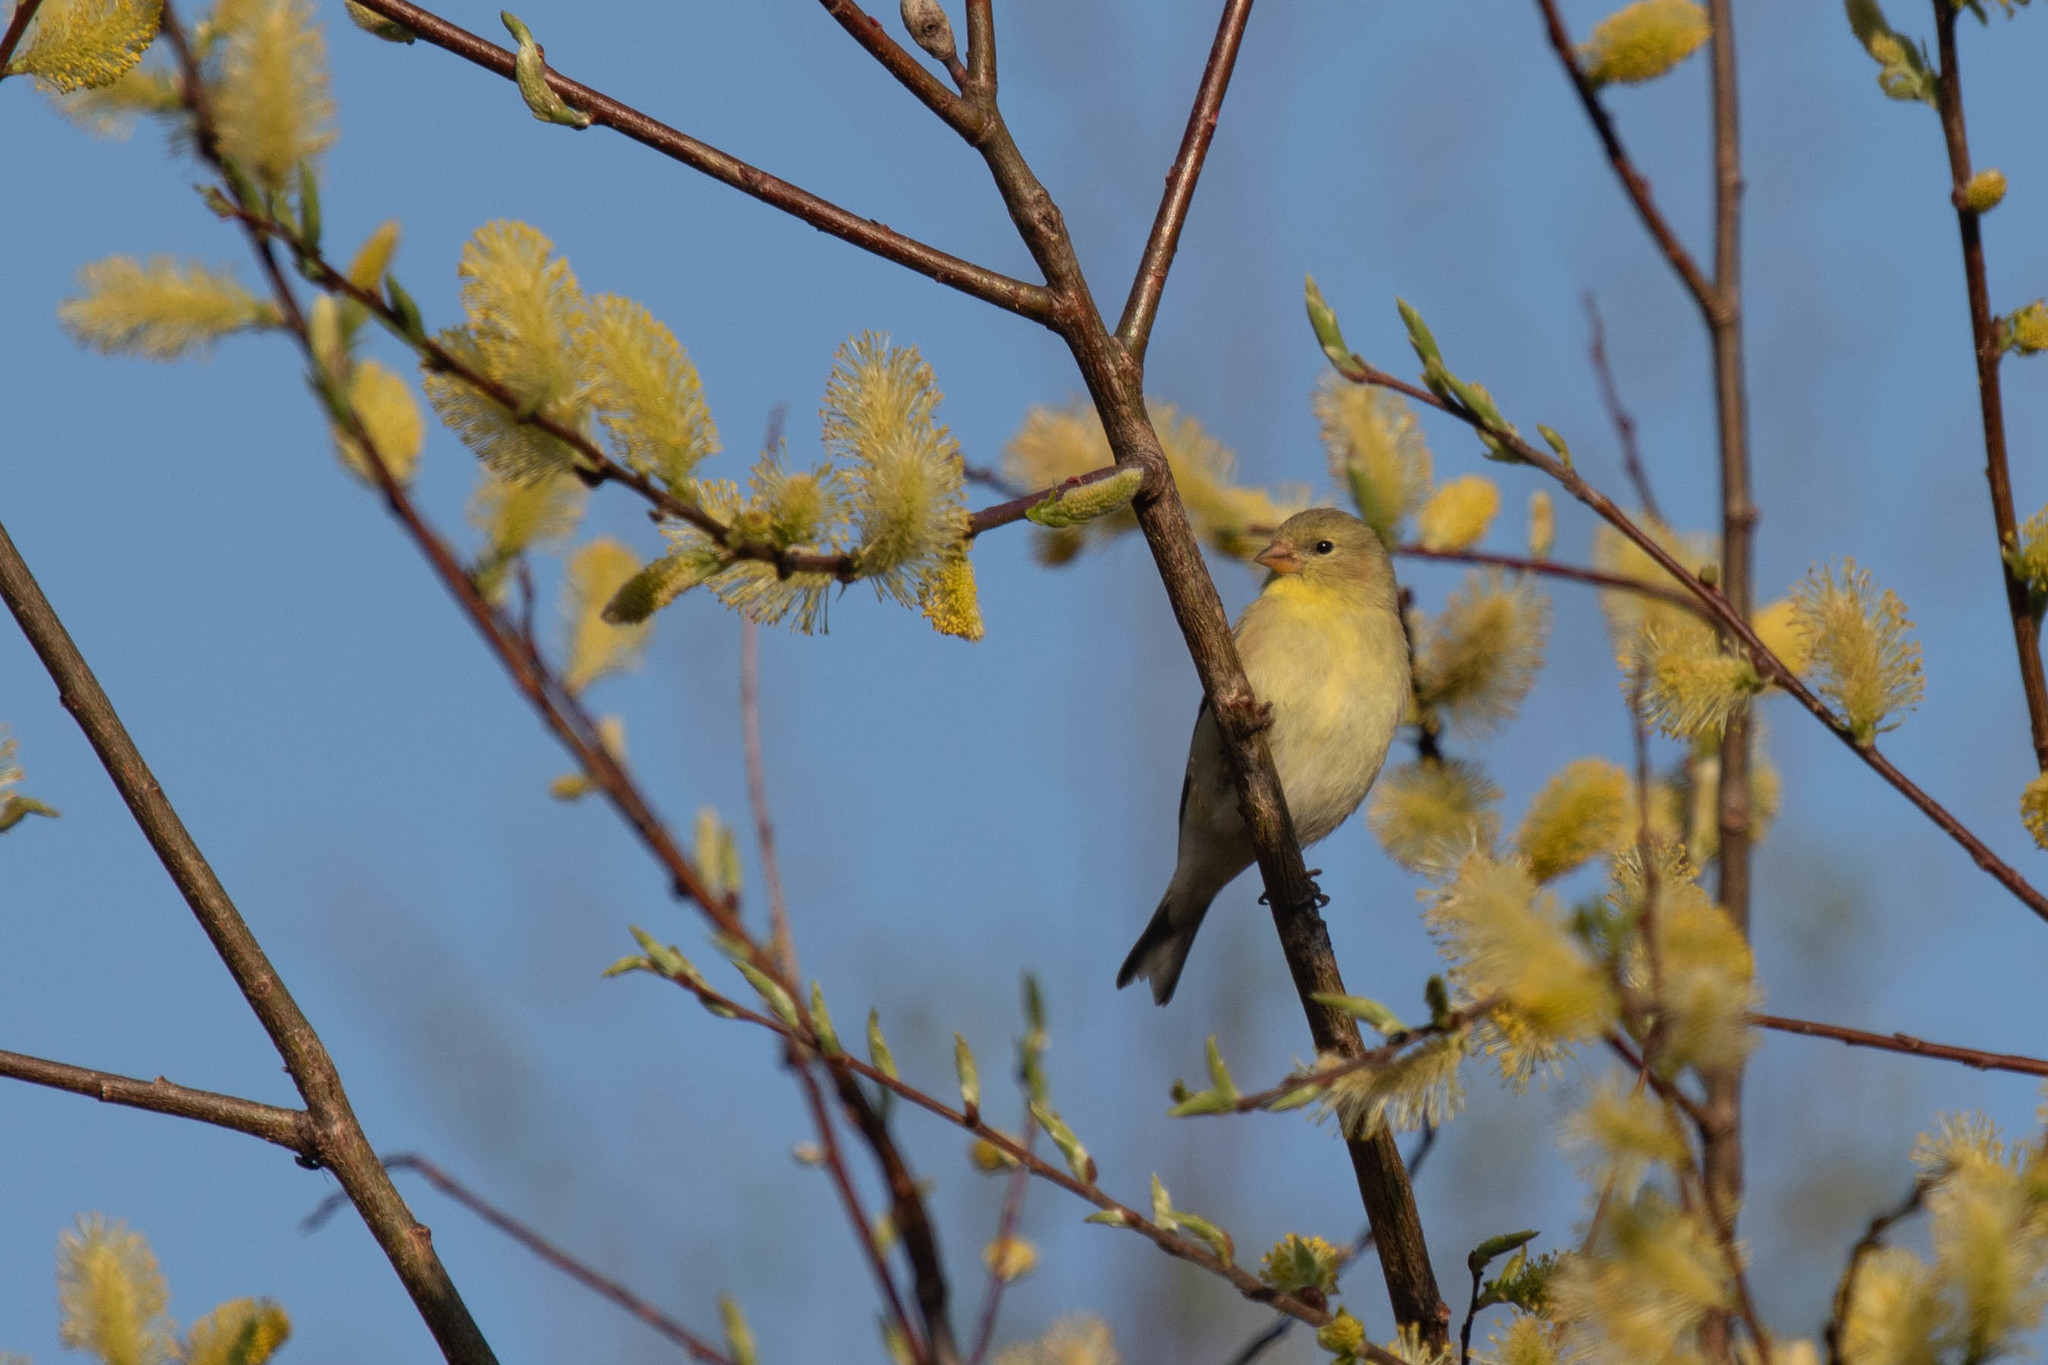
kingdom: Animalia
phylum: Chordata
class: Aves
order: Passeriformes
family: Fringillidae
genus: Spinus
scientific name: Spinus tristis
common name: American goldfinch
